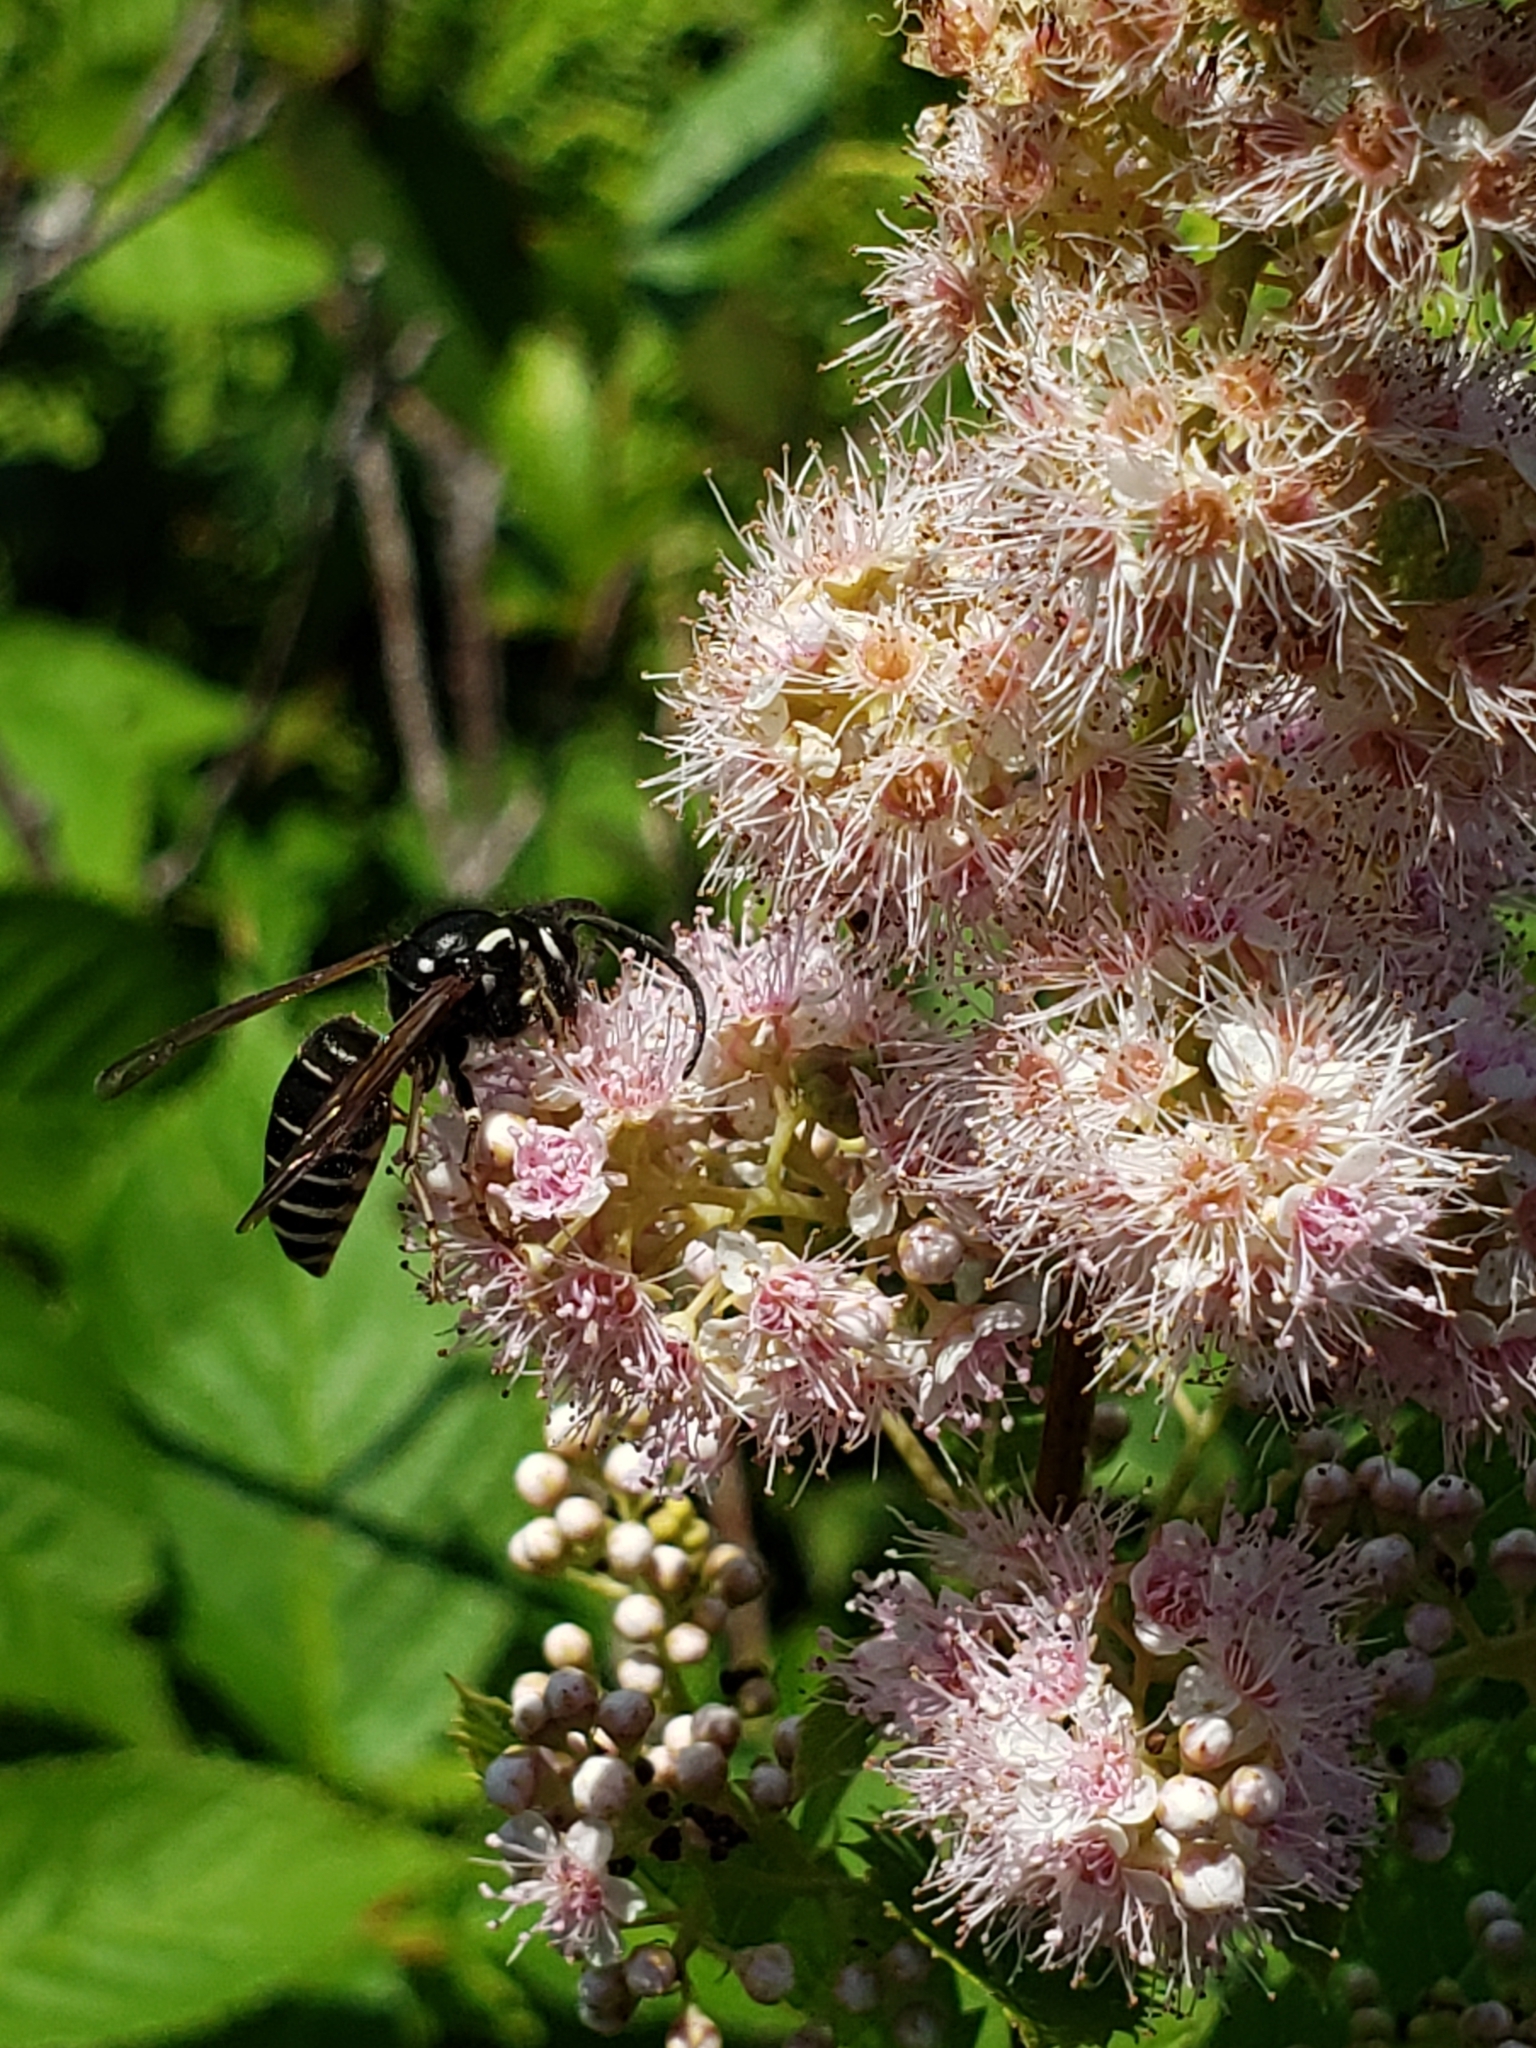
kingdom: Animalia
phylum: Arthropoda
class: Insecta
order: Hymenoptera
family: Vespidae
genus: Dolichovespula
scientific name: Dolichovespula adulterina
